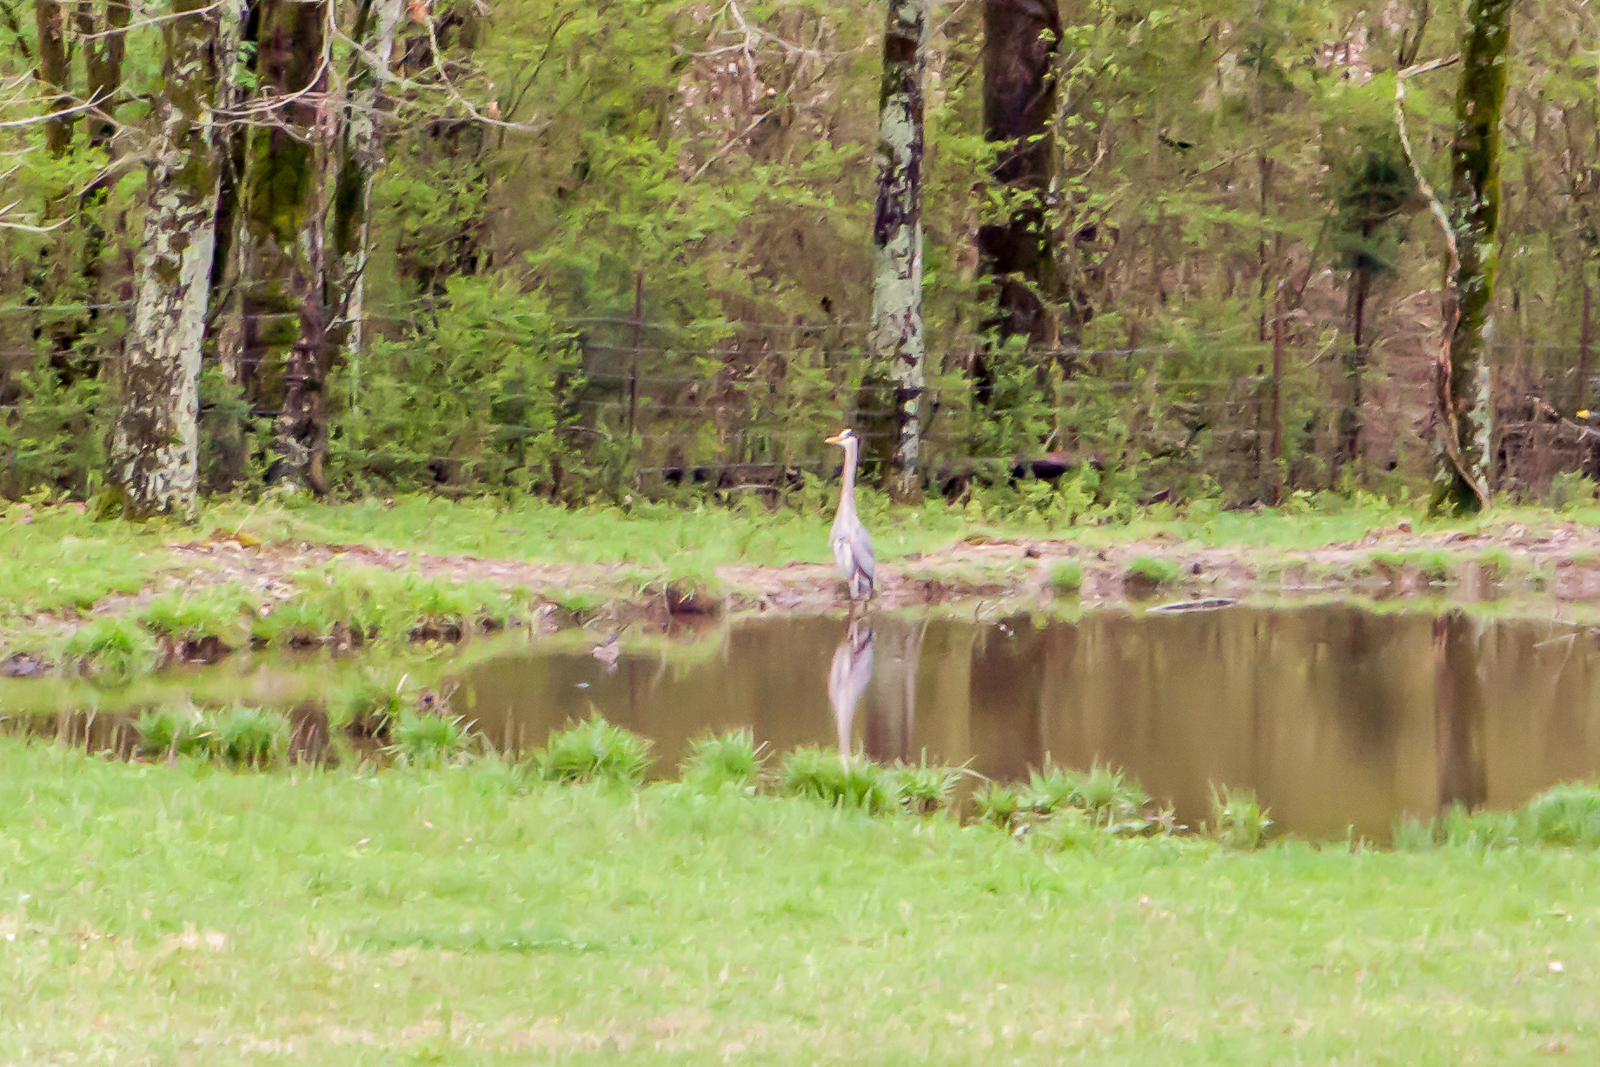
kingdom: Animalia
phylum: Chordata
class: Aves
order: Pelecaniformes
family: Ardeidae
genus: Ardea
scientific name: Ardea herodias
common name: Great blue heron
